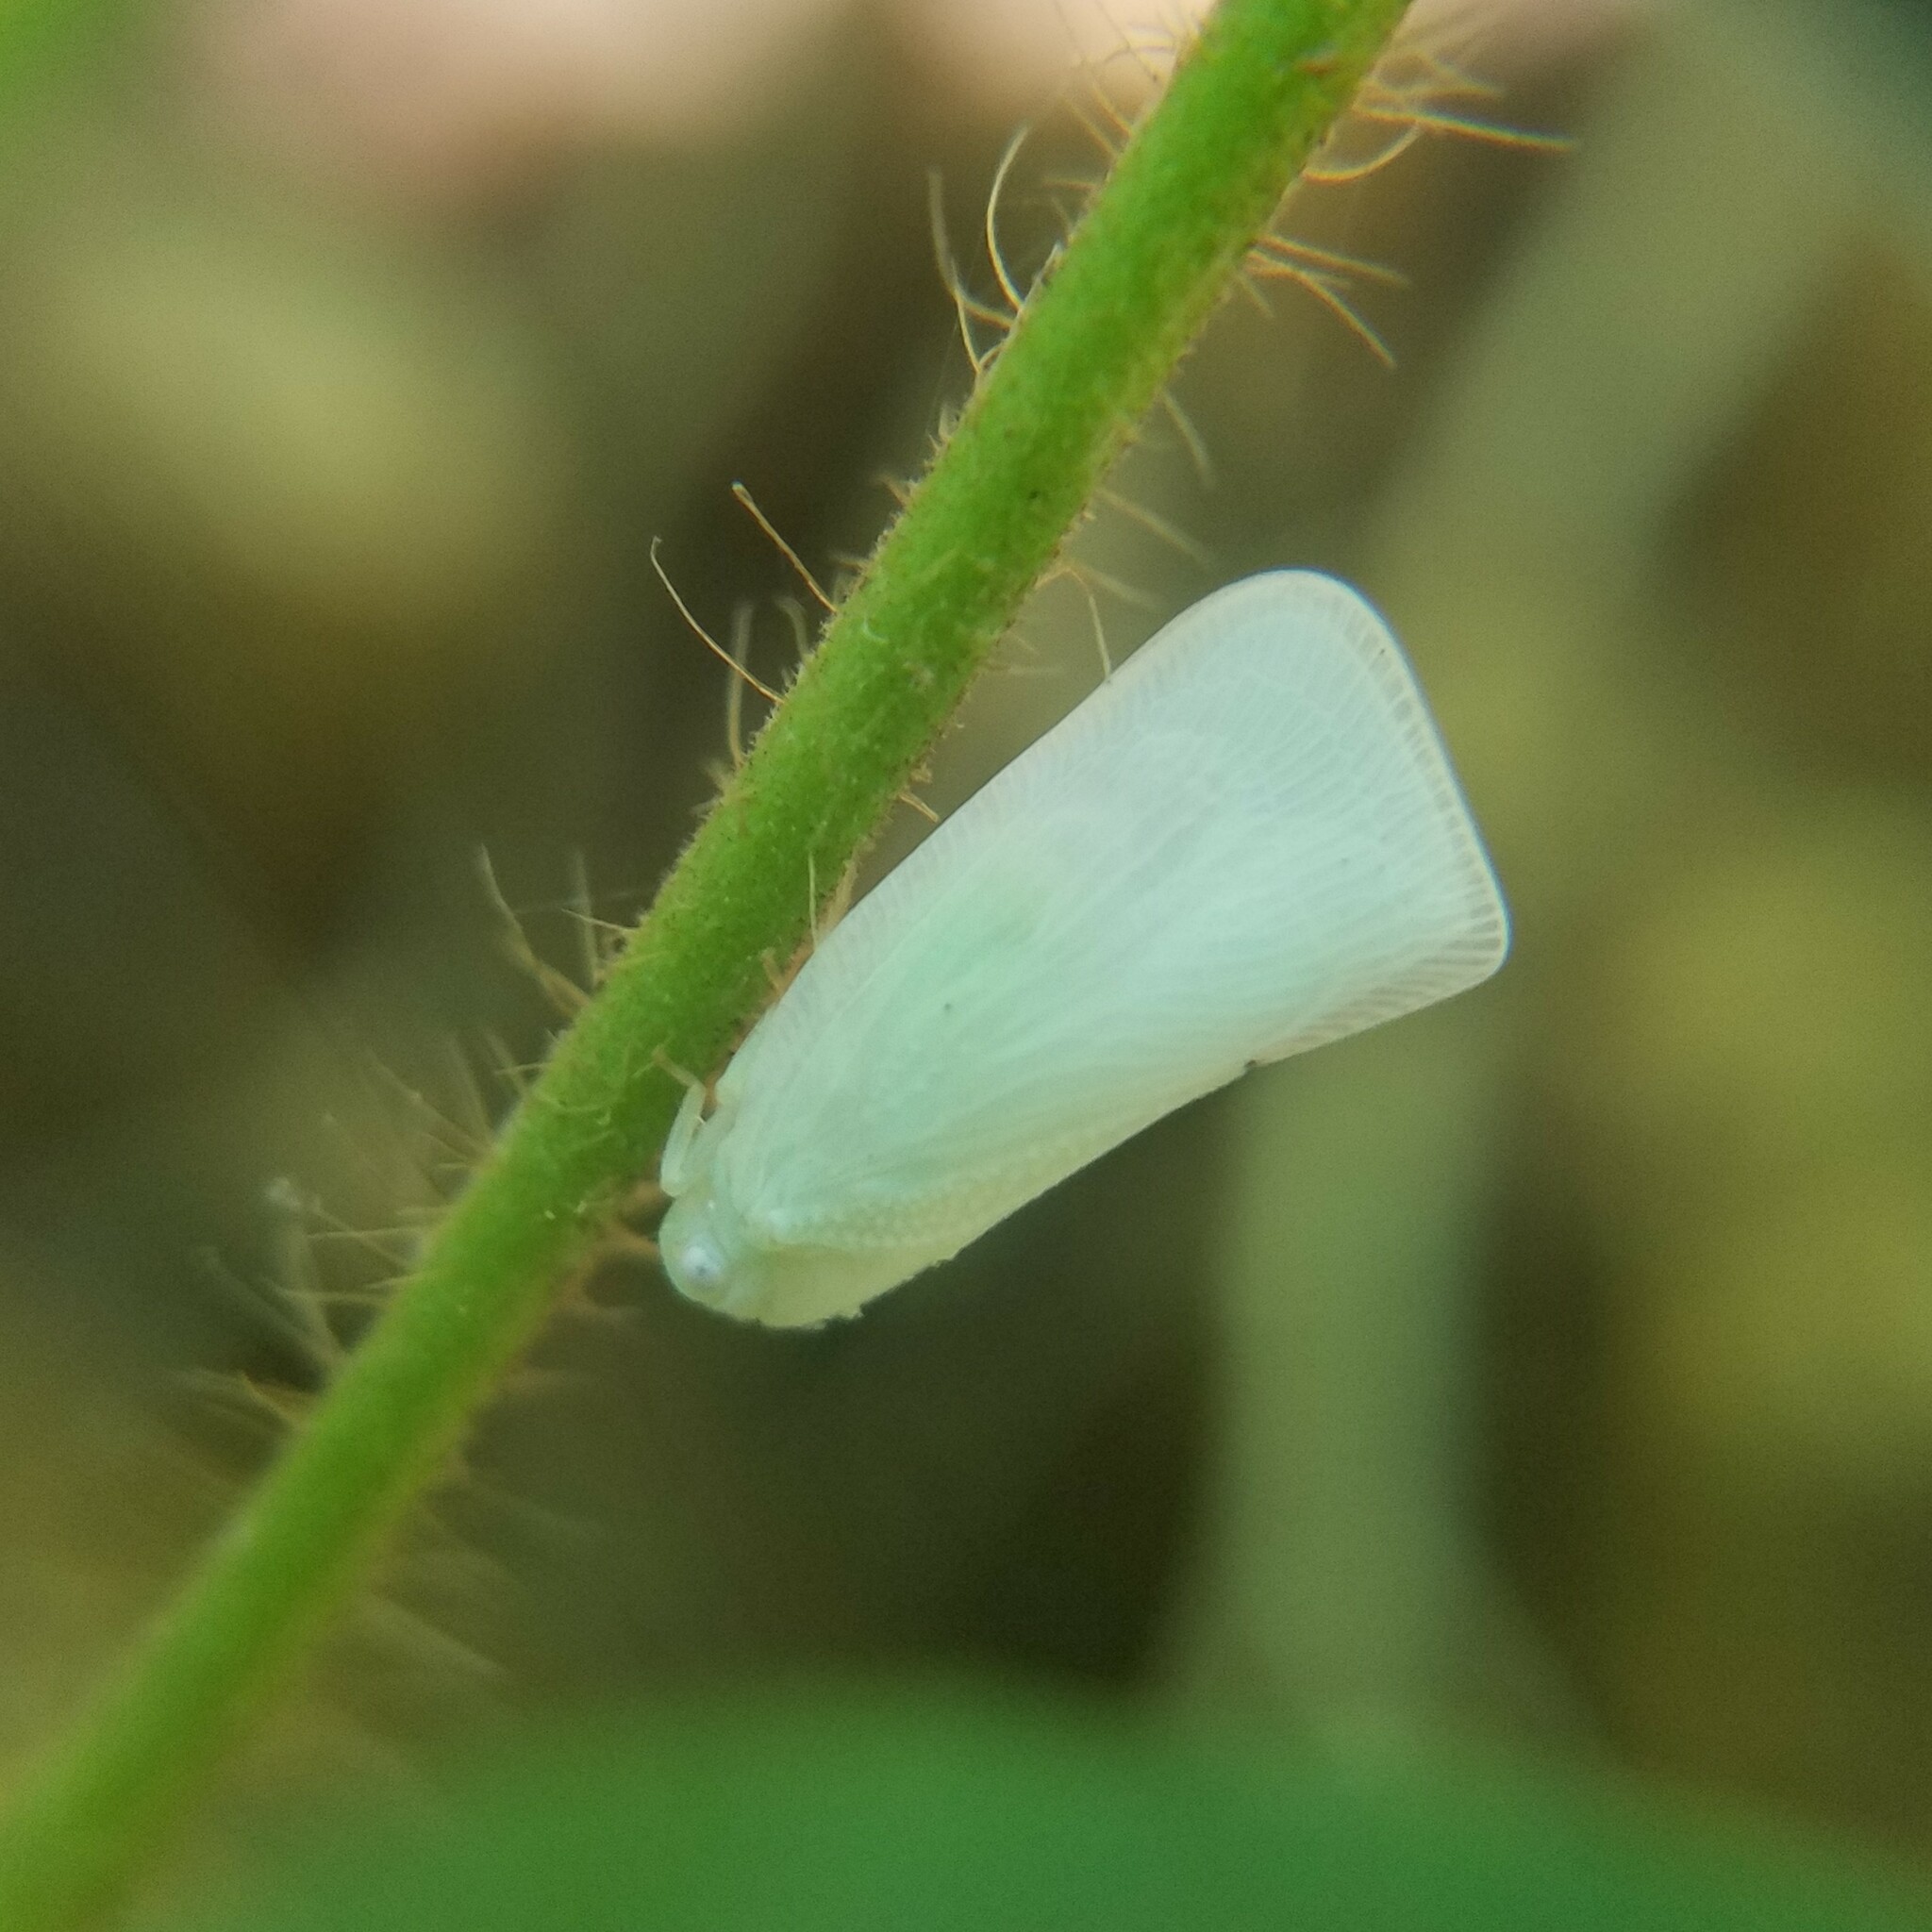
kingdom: Animalia
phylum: Arthropoda
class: Insecta
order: Hemiptera
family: Flatidae
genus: Flatormenis
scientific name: Flatormenis proxima
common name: Northern flatid planthopper
